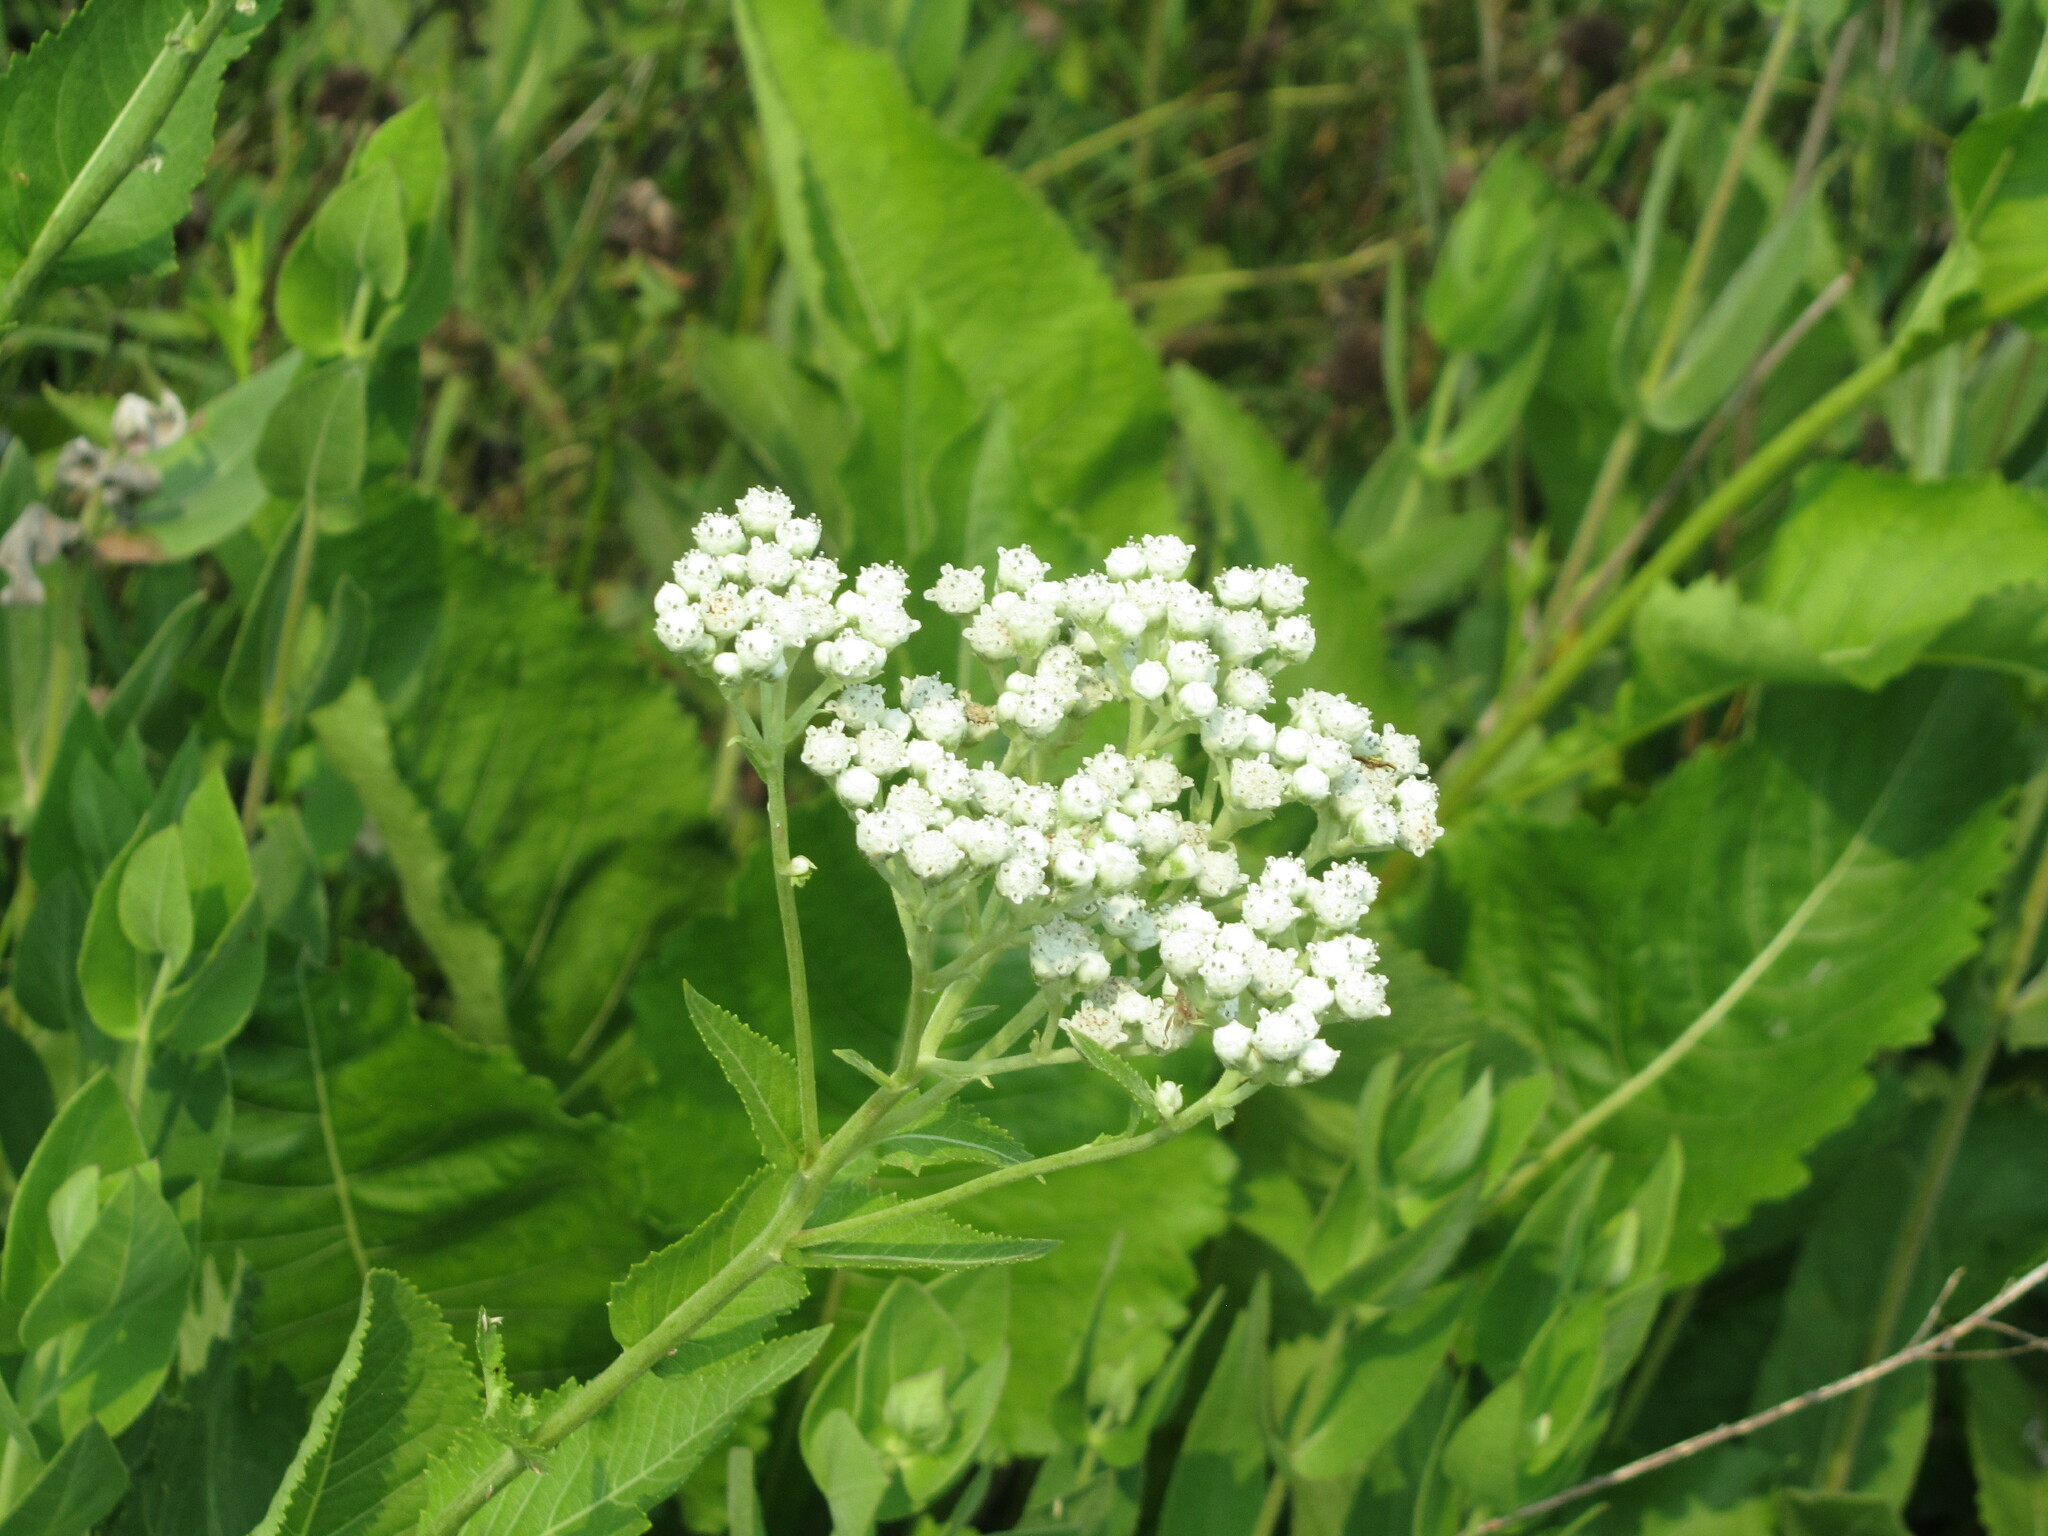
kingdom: Plantae
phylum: Tracheophyta
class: Magnoliopsida
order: Asterales
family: Asteraceae
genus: Parthenium
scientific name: Parthenium integrifolium
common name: American feverfew
